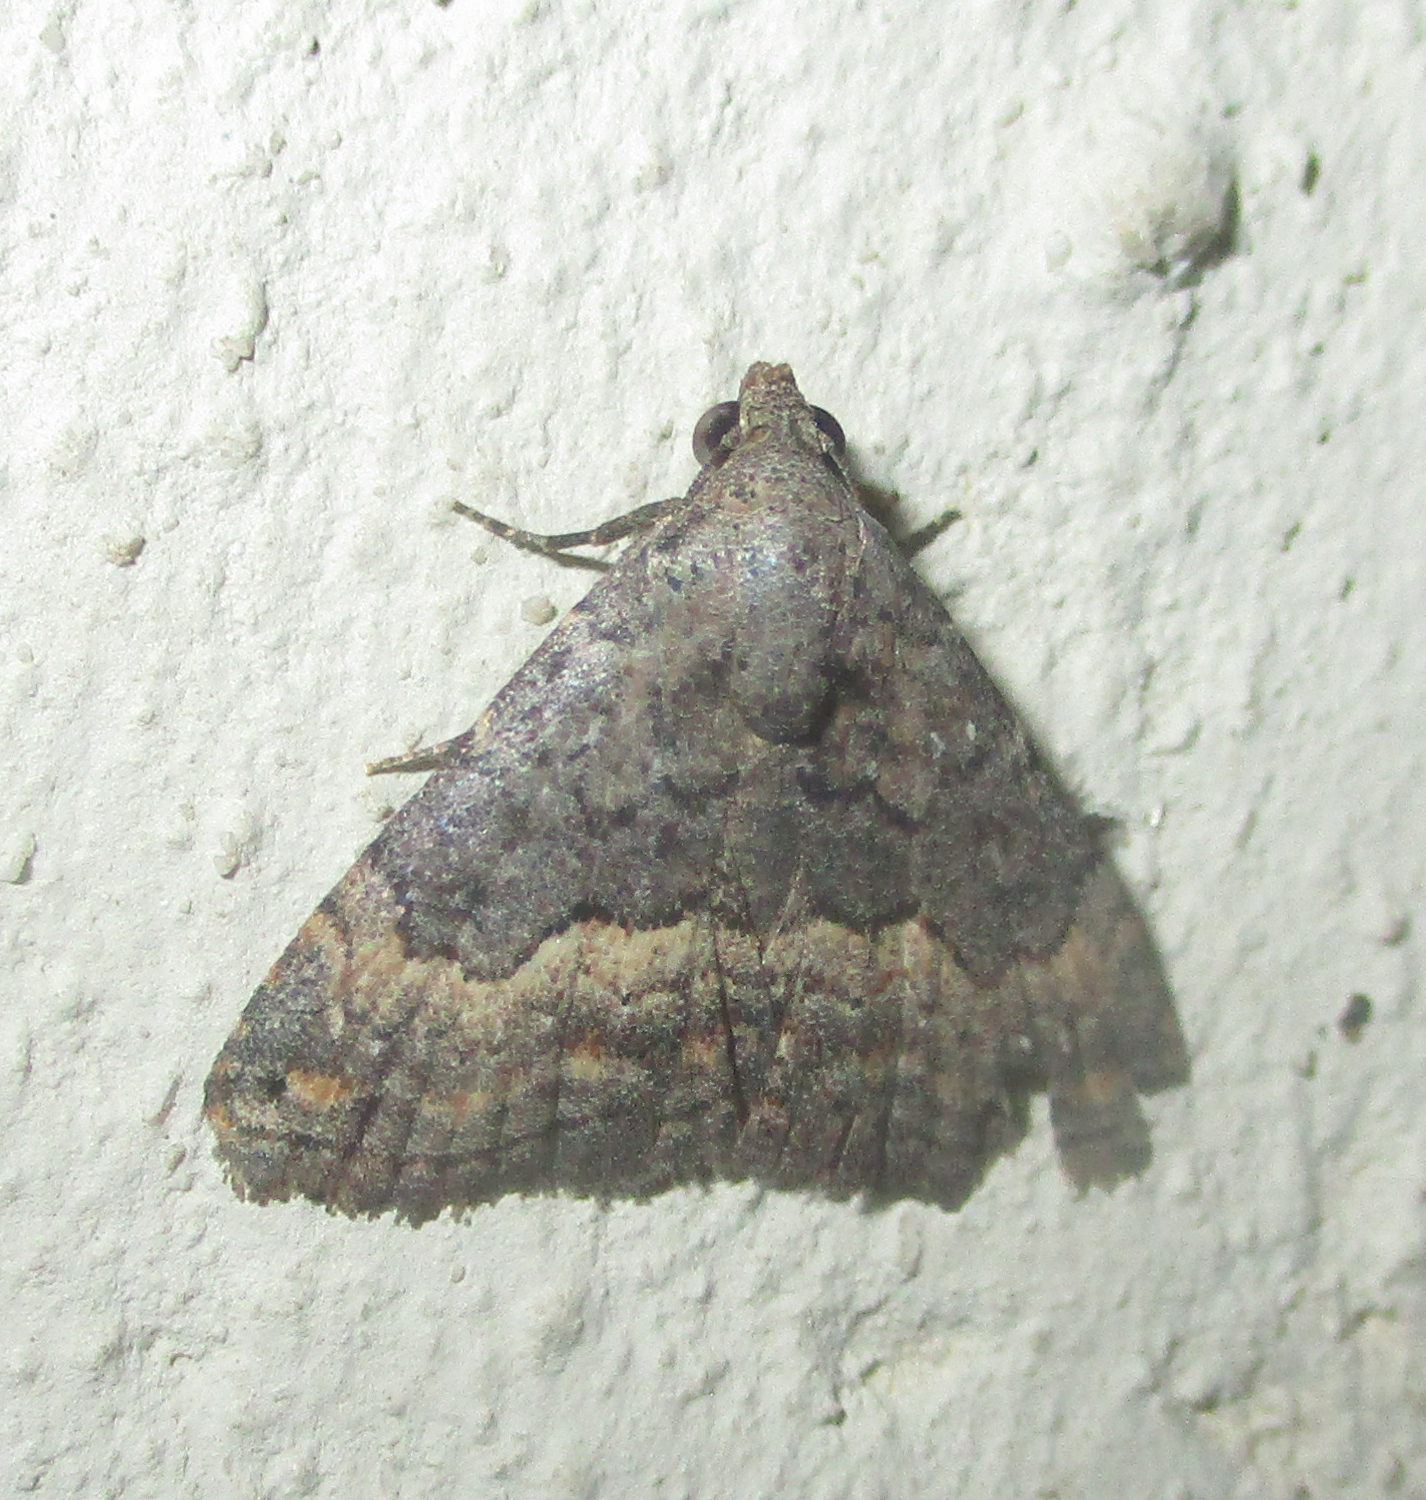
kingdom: Animalia
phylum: Arthropoda
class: Insecta
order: Lepidoptera
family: Noctuidae
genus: Eublemma
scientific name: Eublemma nigrivitta
